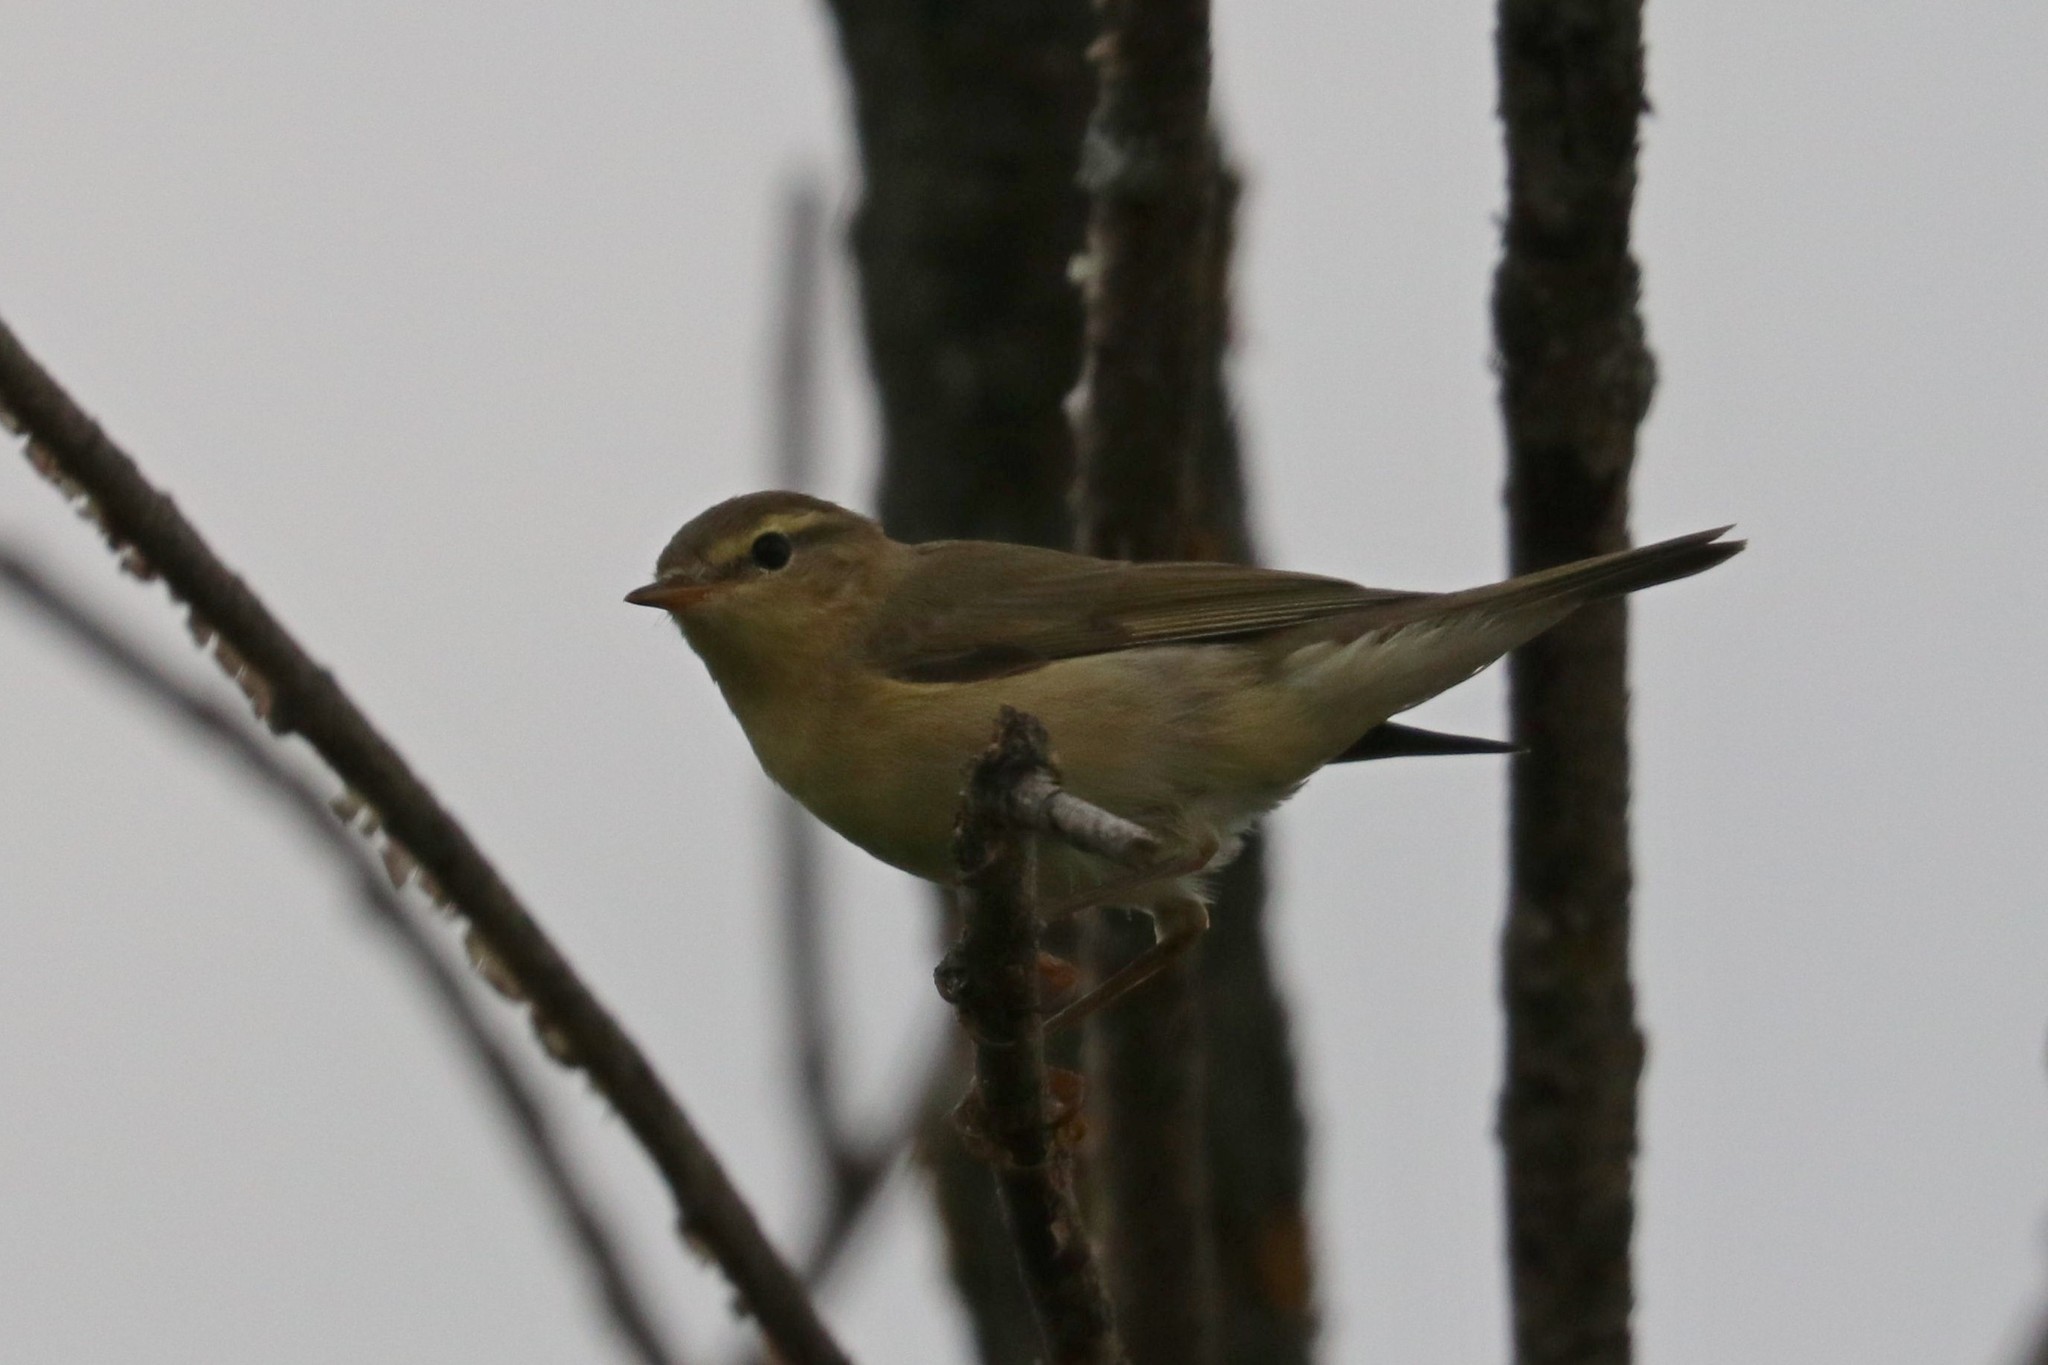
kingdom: Animalia
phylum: Chordata
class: Aves
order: Passeriformes
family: Phylloscopidae
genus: Phylloscopus
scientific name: Phylloscopus trochilus
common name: Willow warbler
